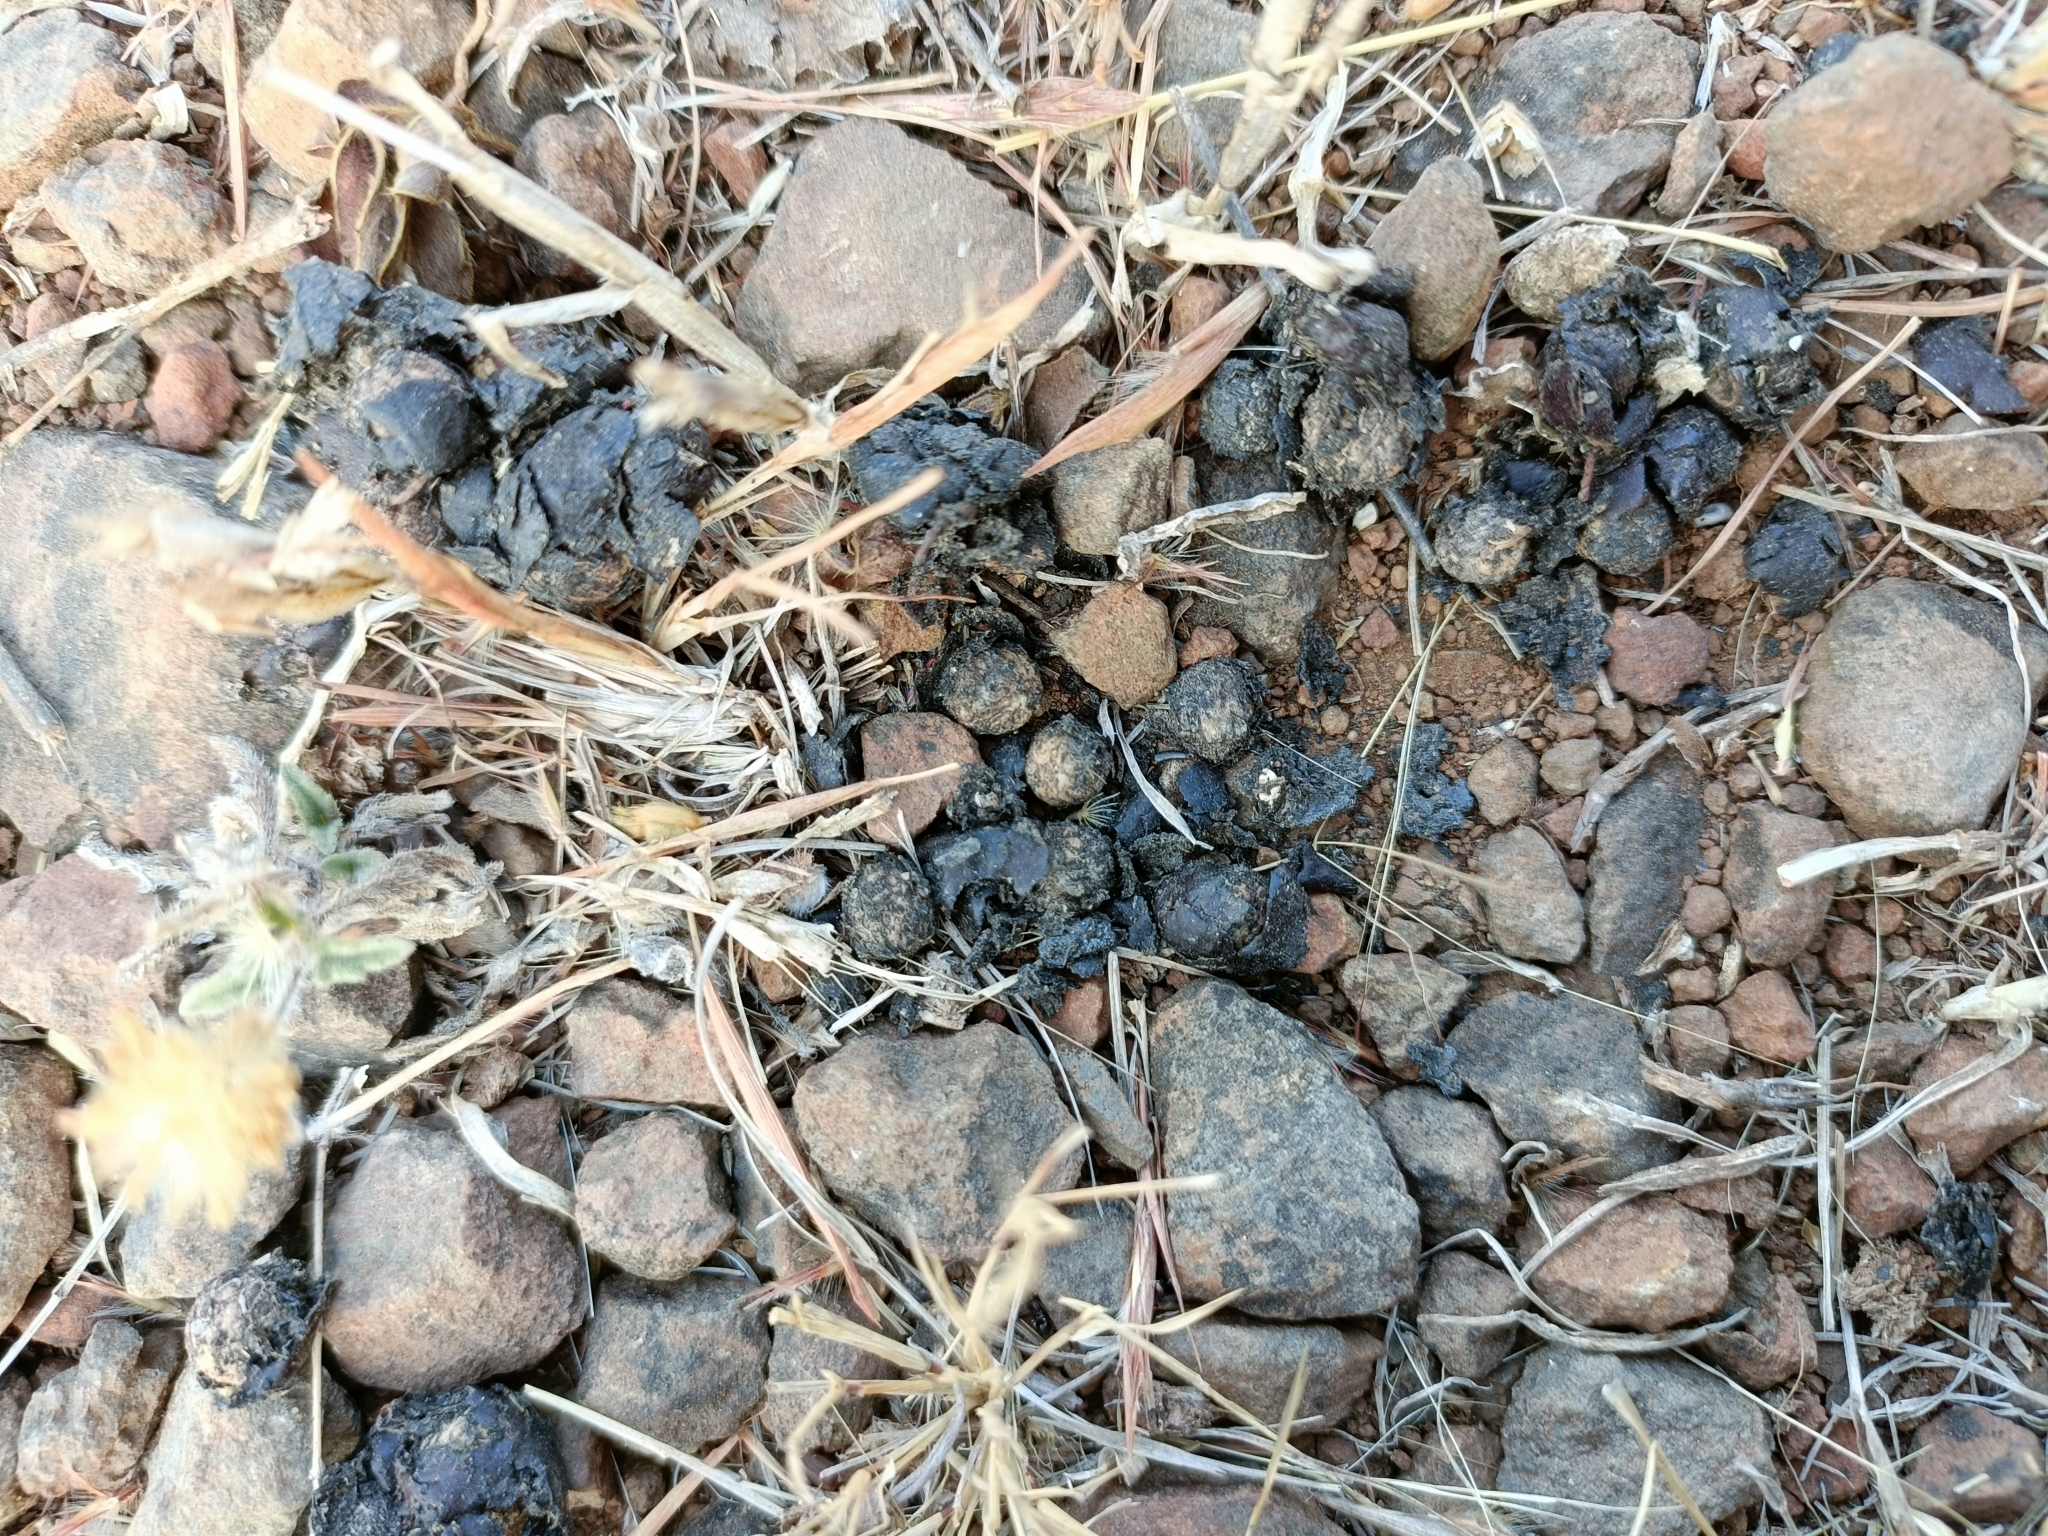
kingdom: Animalia
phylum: Chordata
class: Mammalia
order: Artiodactyla
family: Suidae
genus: Sus
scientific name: Sus scrofa
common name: Wild boar
